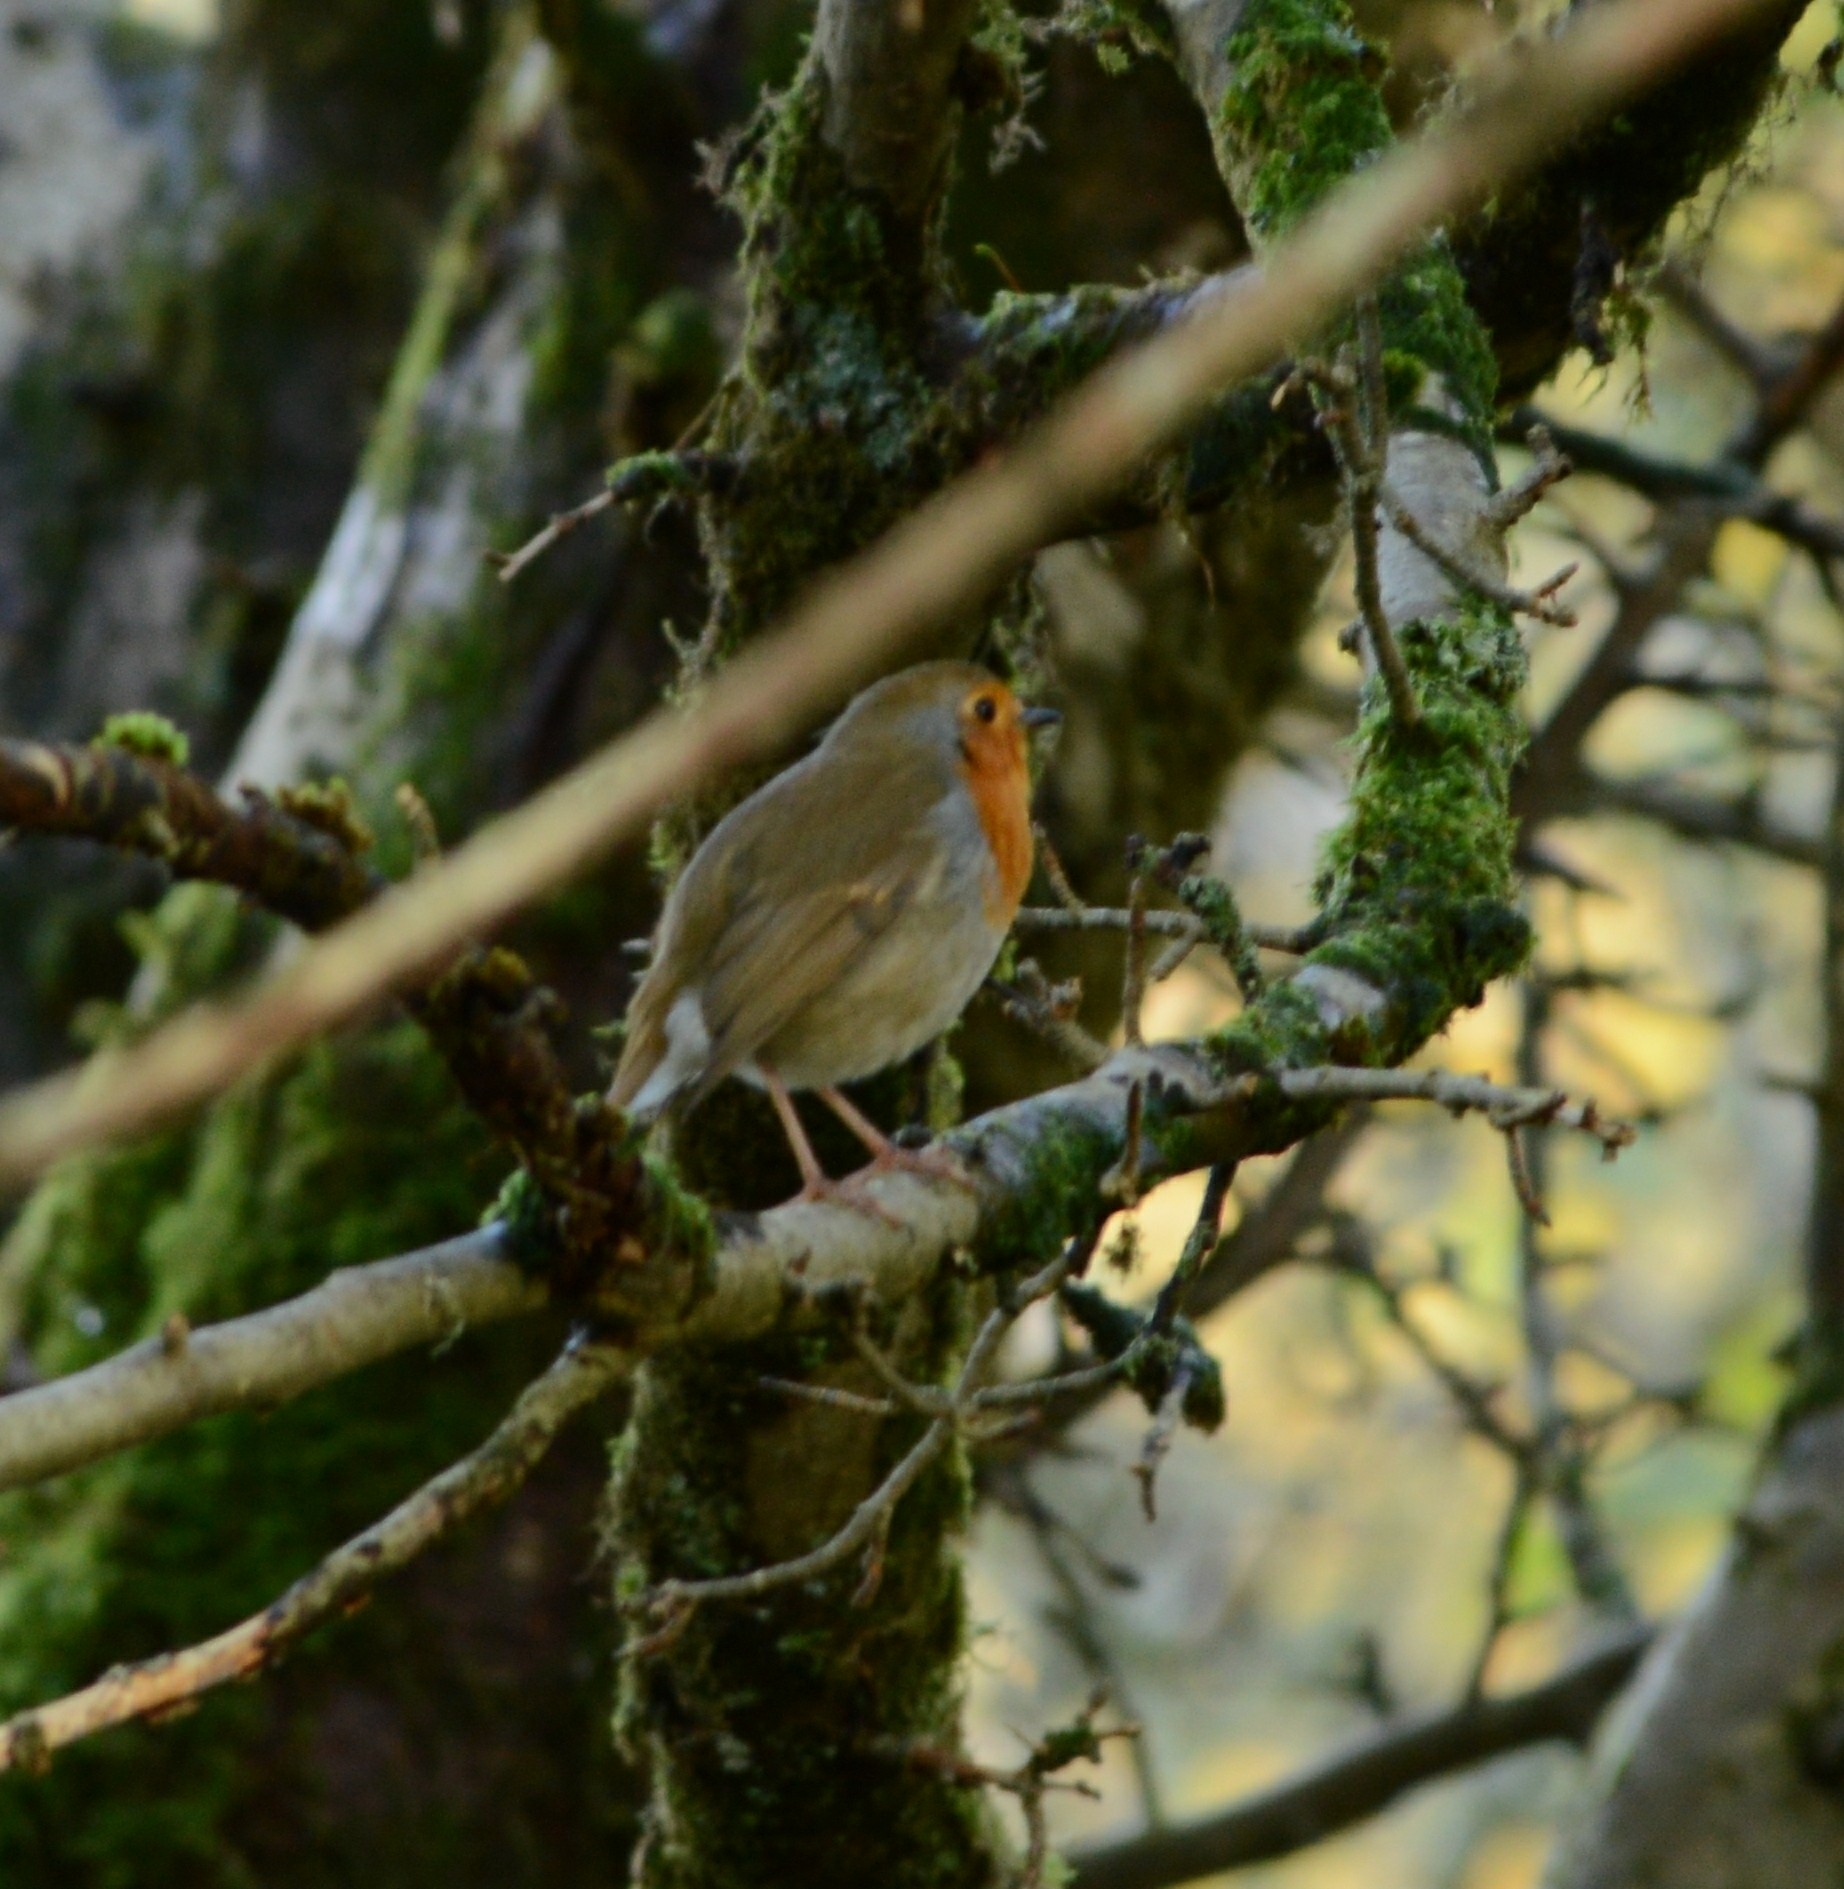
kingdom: Animalia
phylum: Chordata
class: Aves
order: Passeriformes
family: Muscicapidae
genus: Erithacus
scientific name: Erithacus rubecula
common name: European robin
